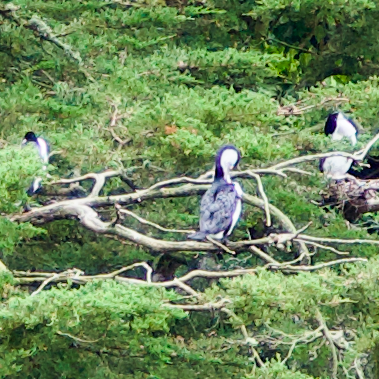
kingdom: Animalia
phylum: Chordata
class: Aves
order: Suliformes
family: Phalacrocoracidae
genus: Phalacrocorax
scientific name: Phalacrocorax varius
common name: Pied cormorant
